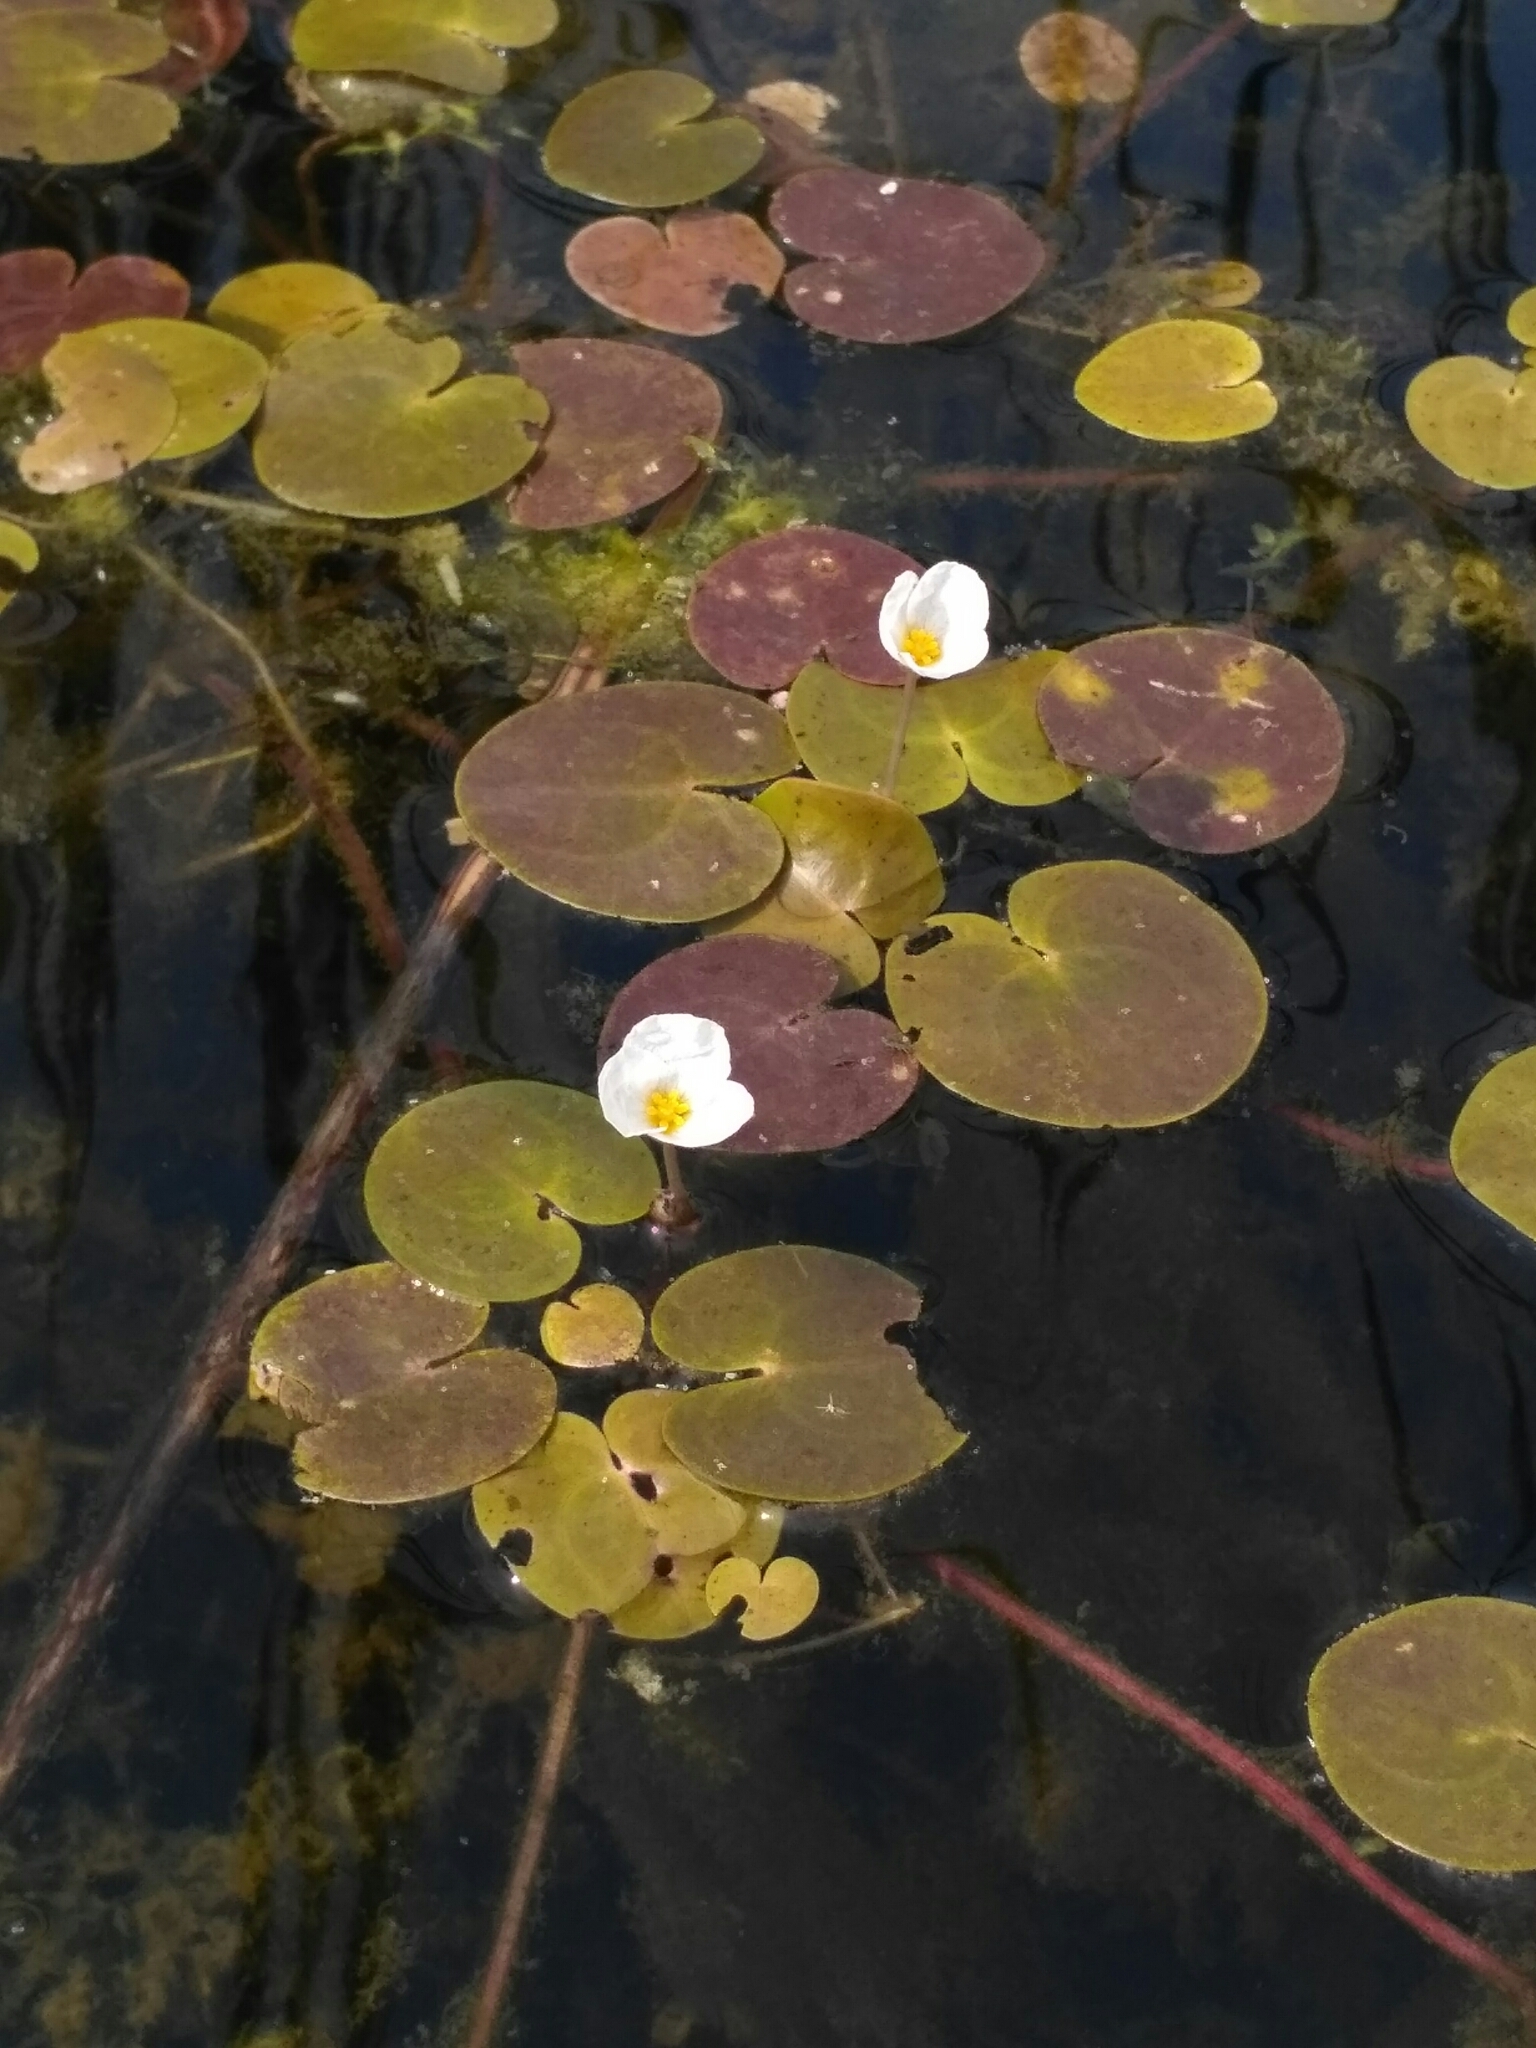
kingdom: Plantae
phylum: Tracheophyta
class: Liliopsida
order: Alismatales
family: Hydrocharitaceae
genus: Hydrocharis
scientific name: Hydrocharis morsus-ranae
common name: Frogbit
